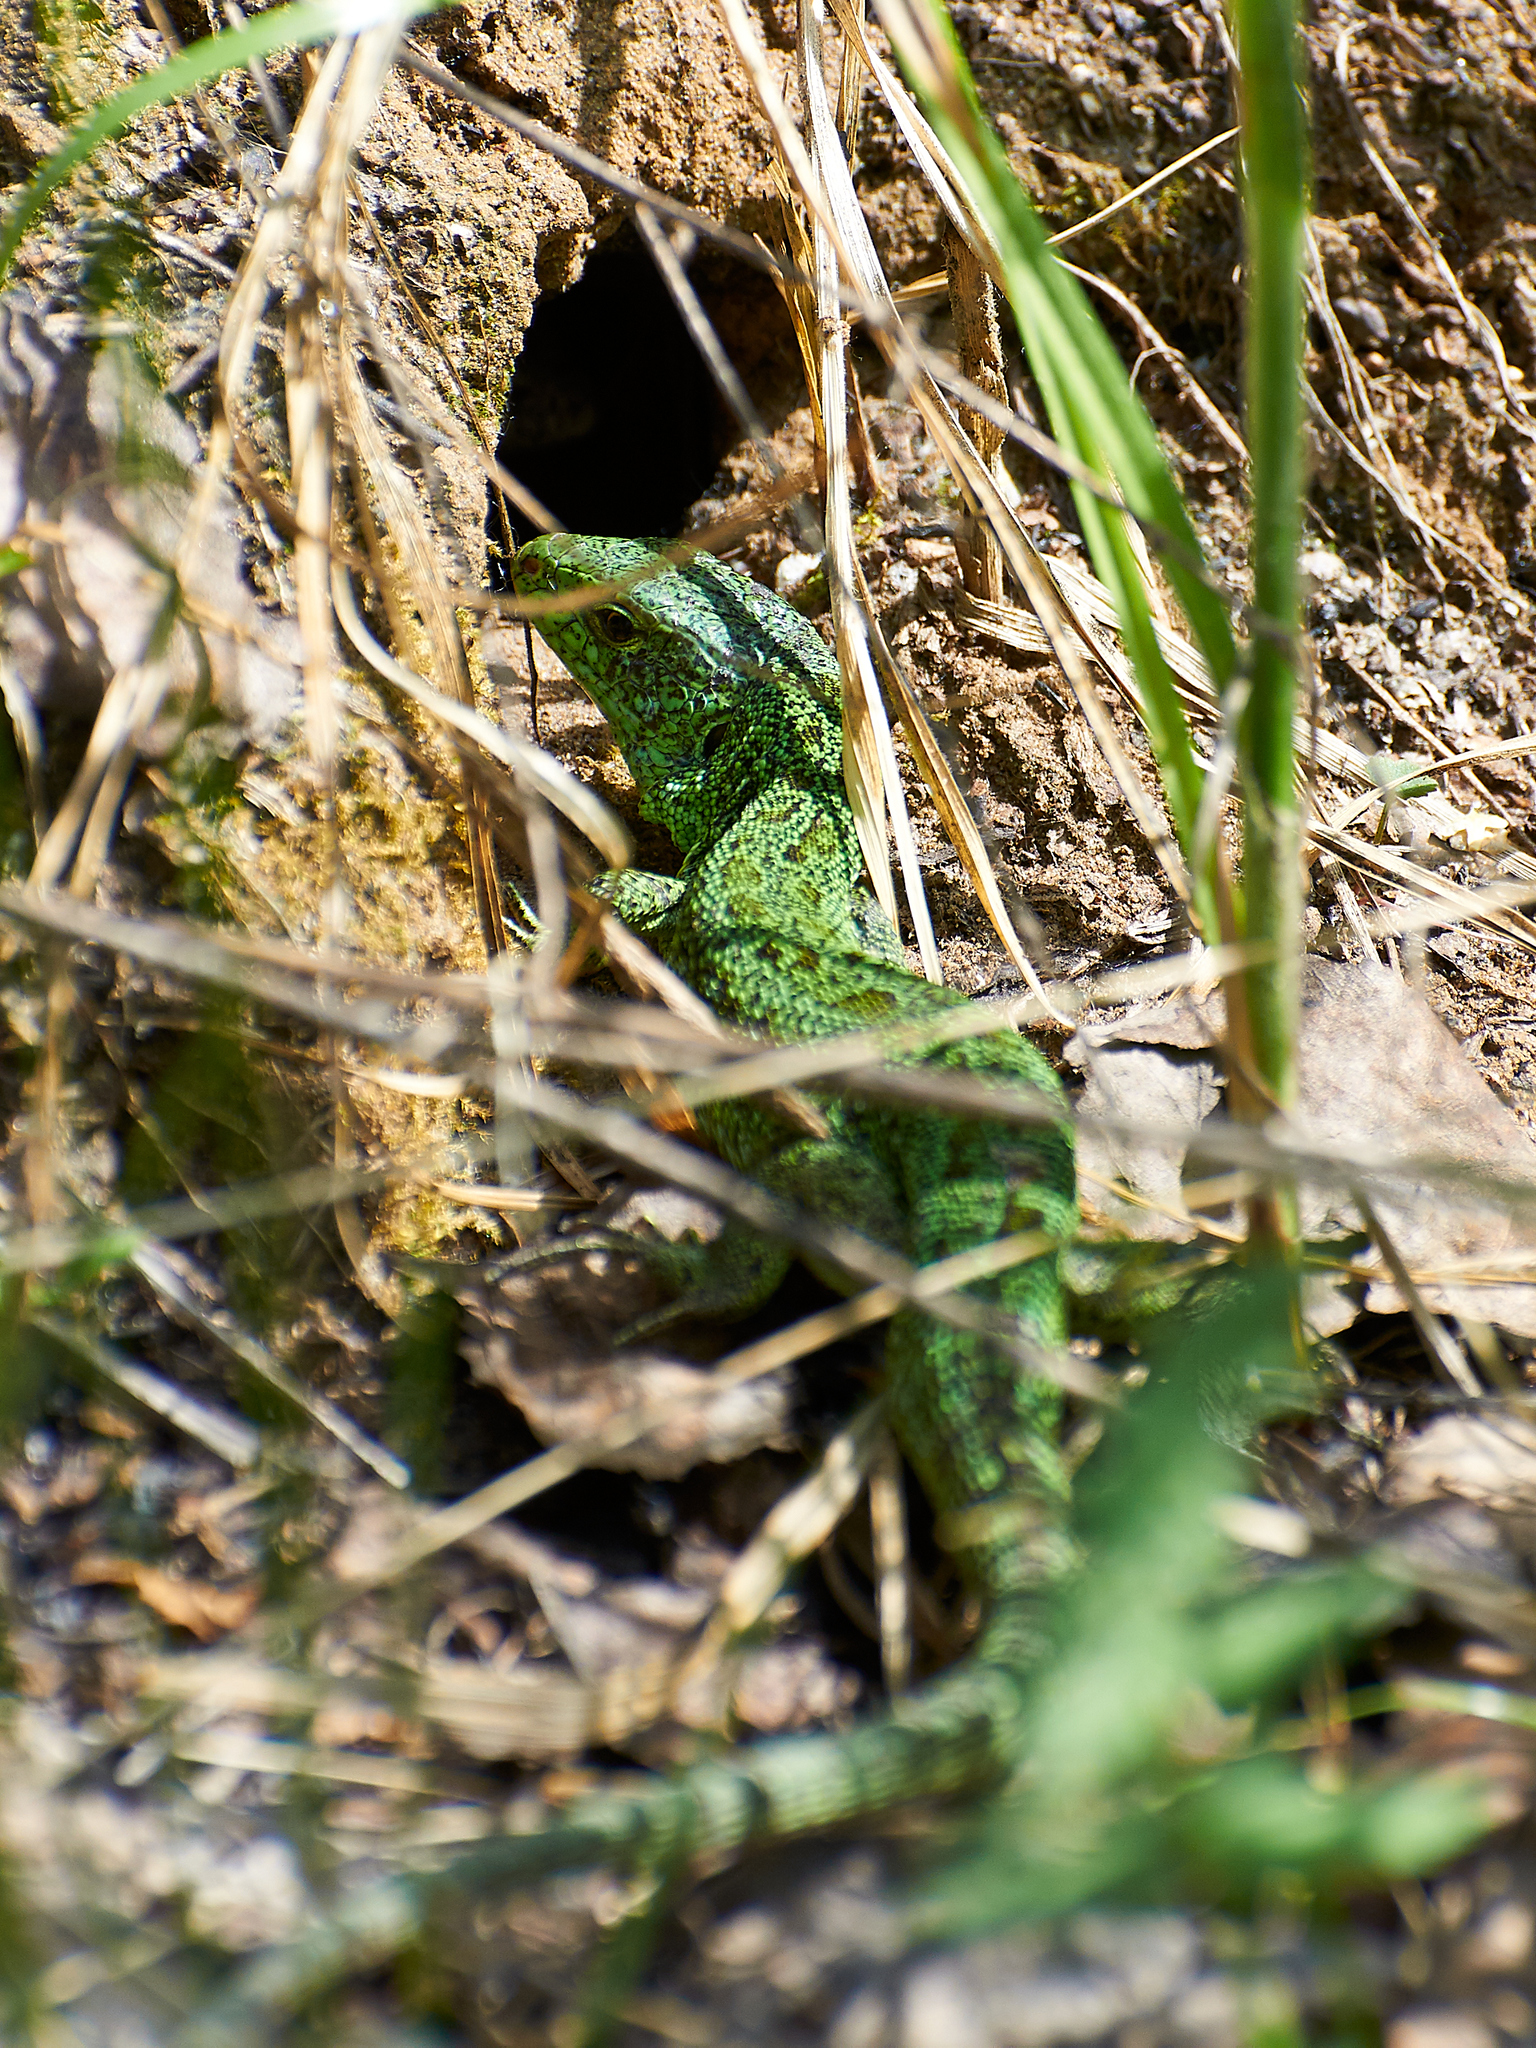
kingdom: Animalia
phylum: Chordata
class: Squamata
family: Lacertidae
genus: Lacerta
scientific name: Lacerta agilis
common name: Sand lizard
